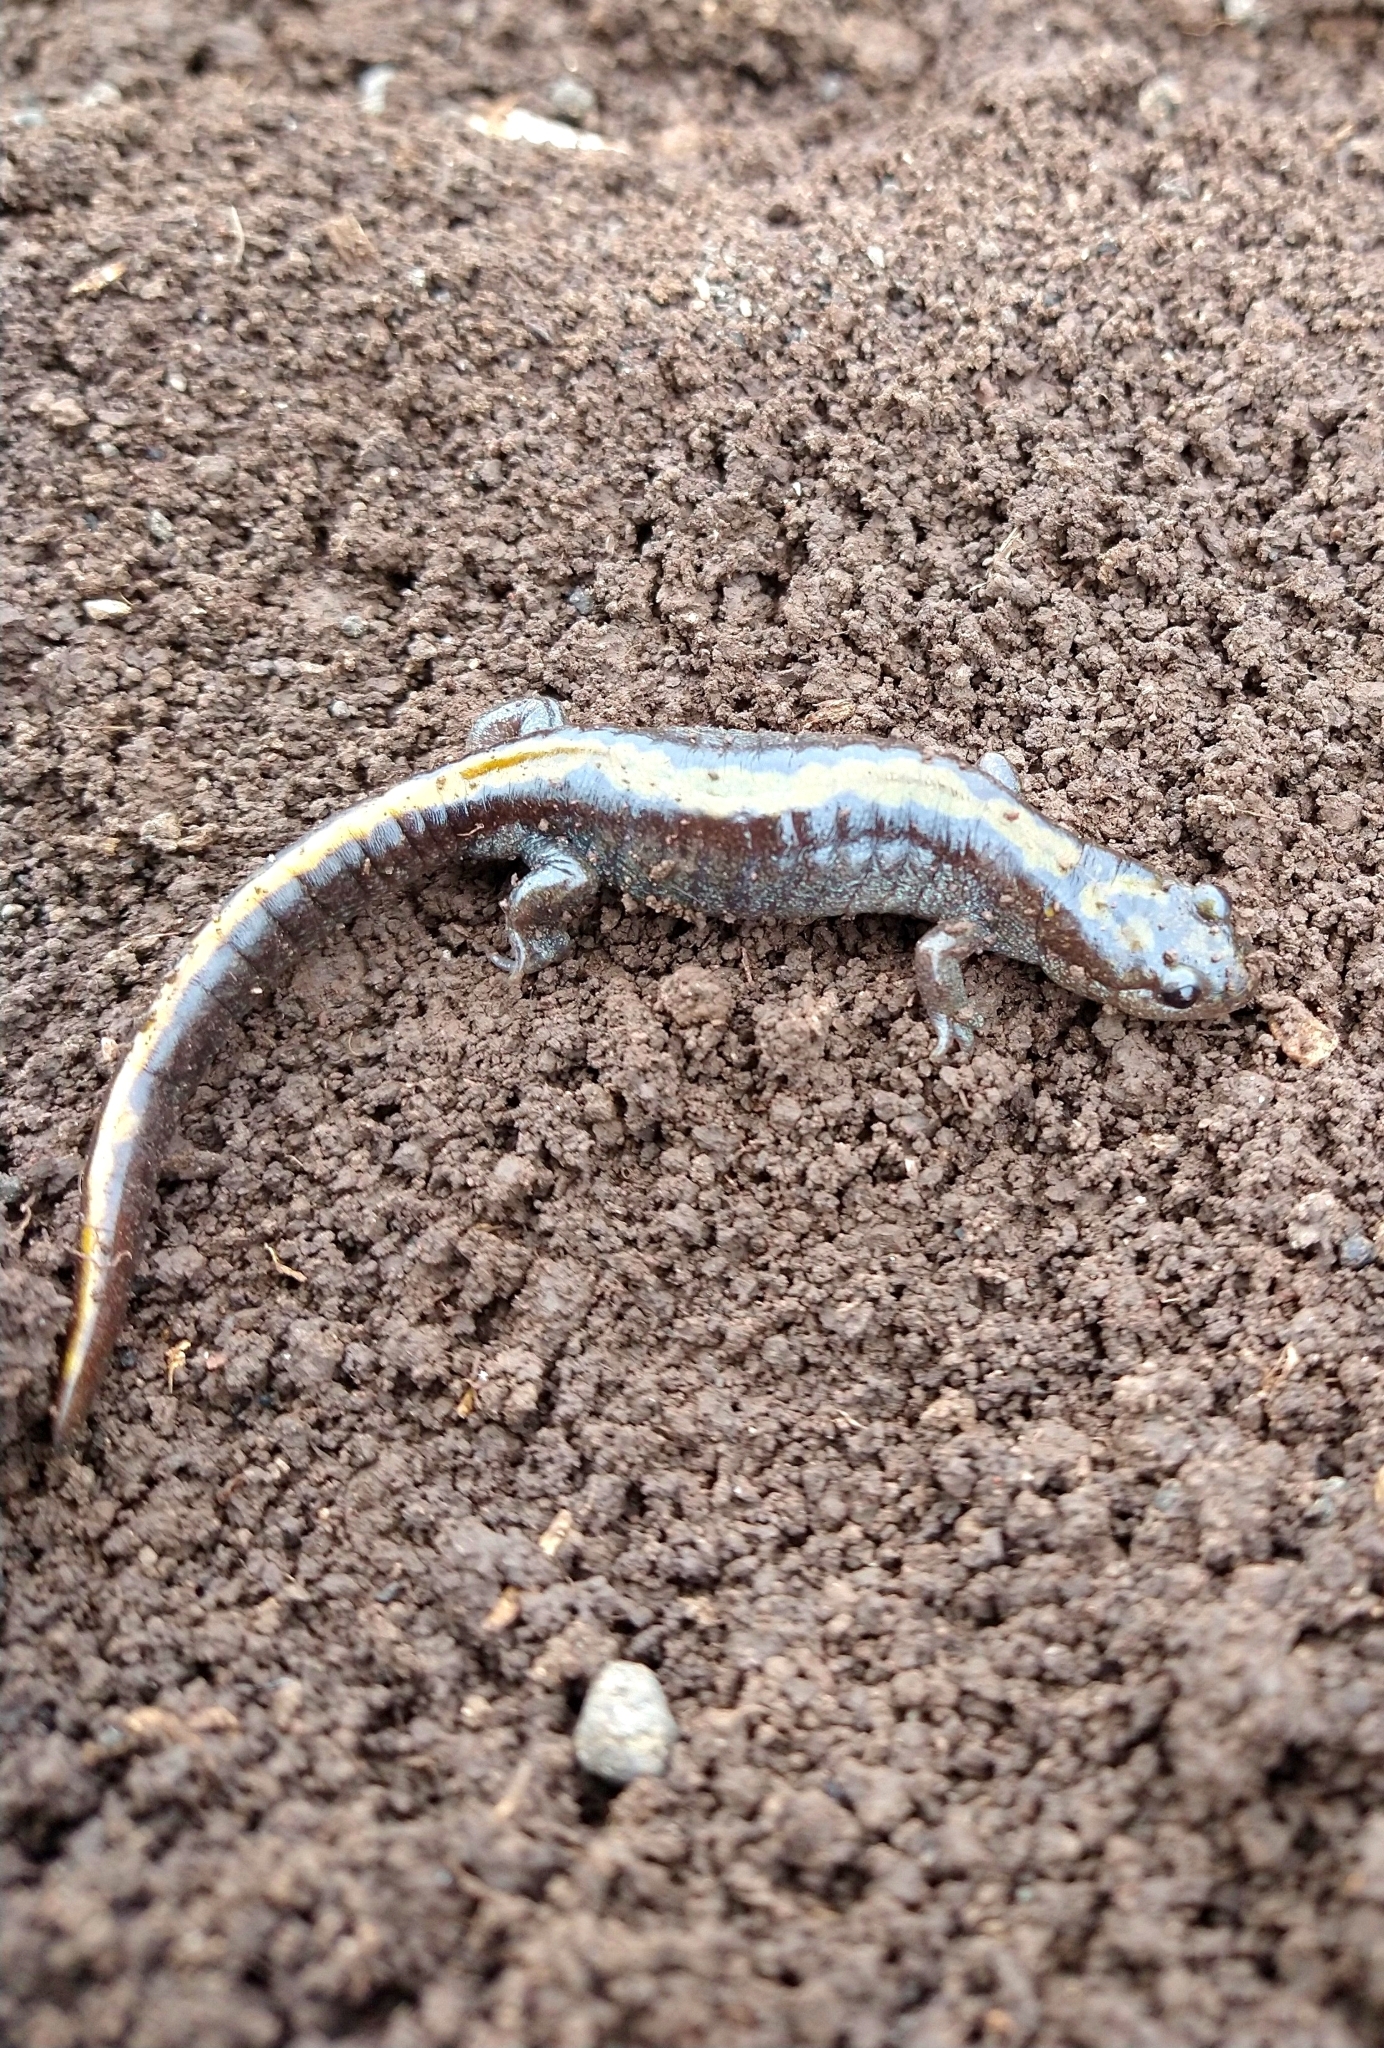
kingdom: Animalia
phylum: Chordata
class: Amphibia
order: Caudata
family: Ambystomatidae
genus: Ambystoma
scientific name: Ambystoma macrodactylum
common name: Long-toed salamander
